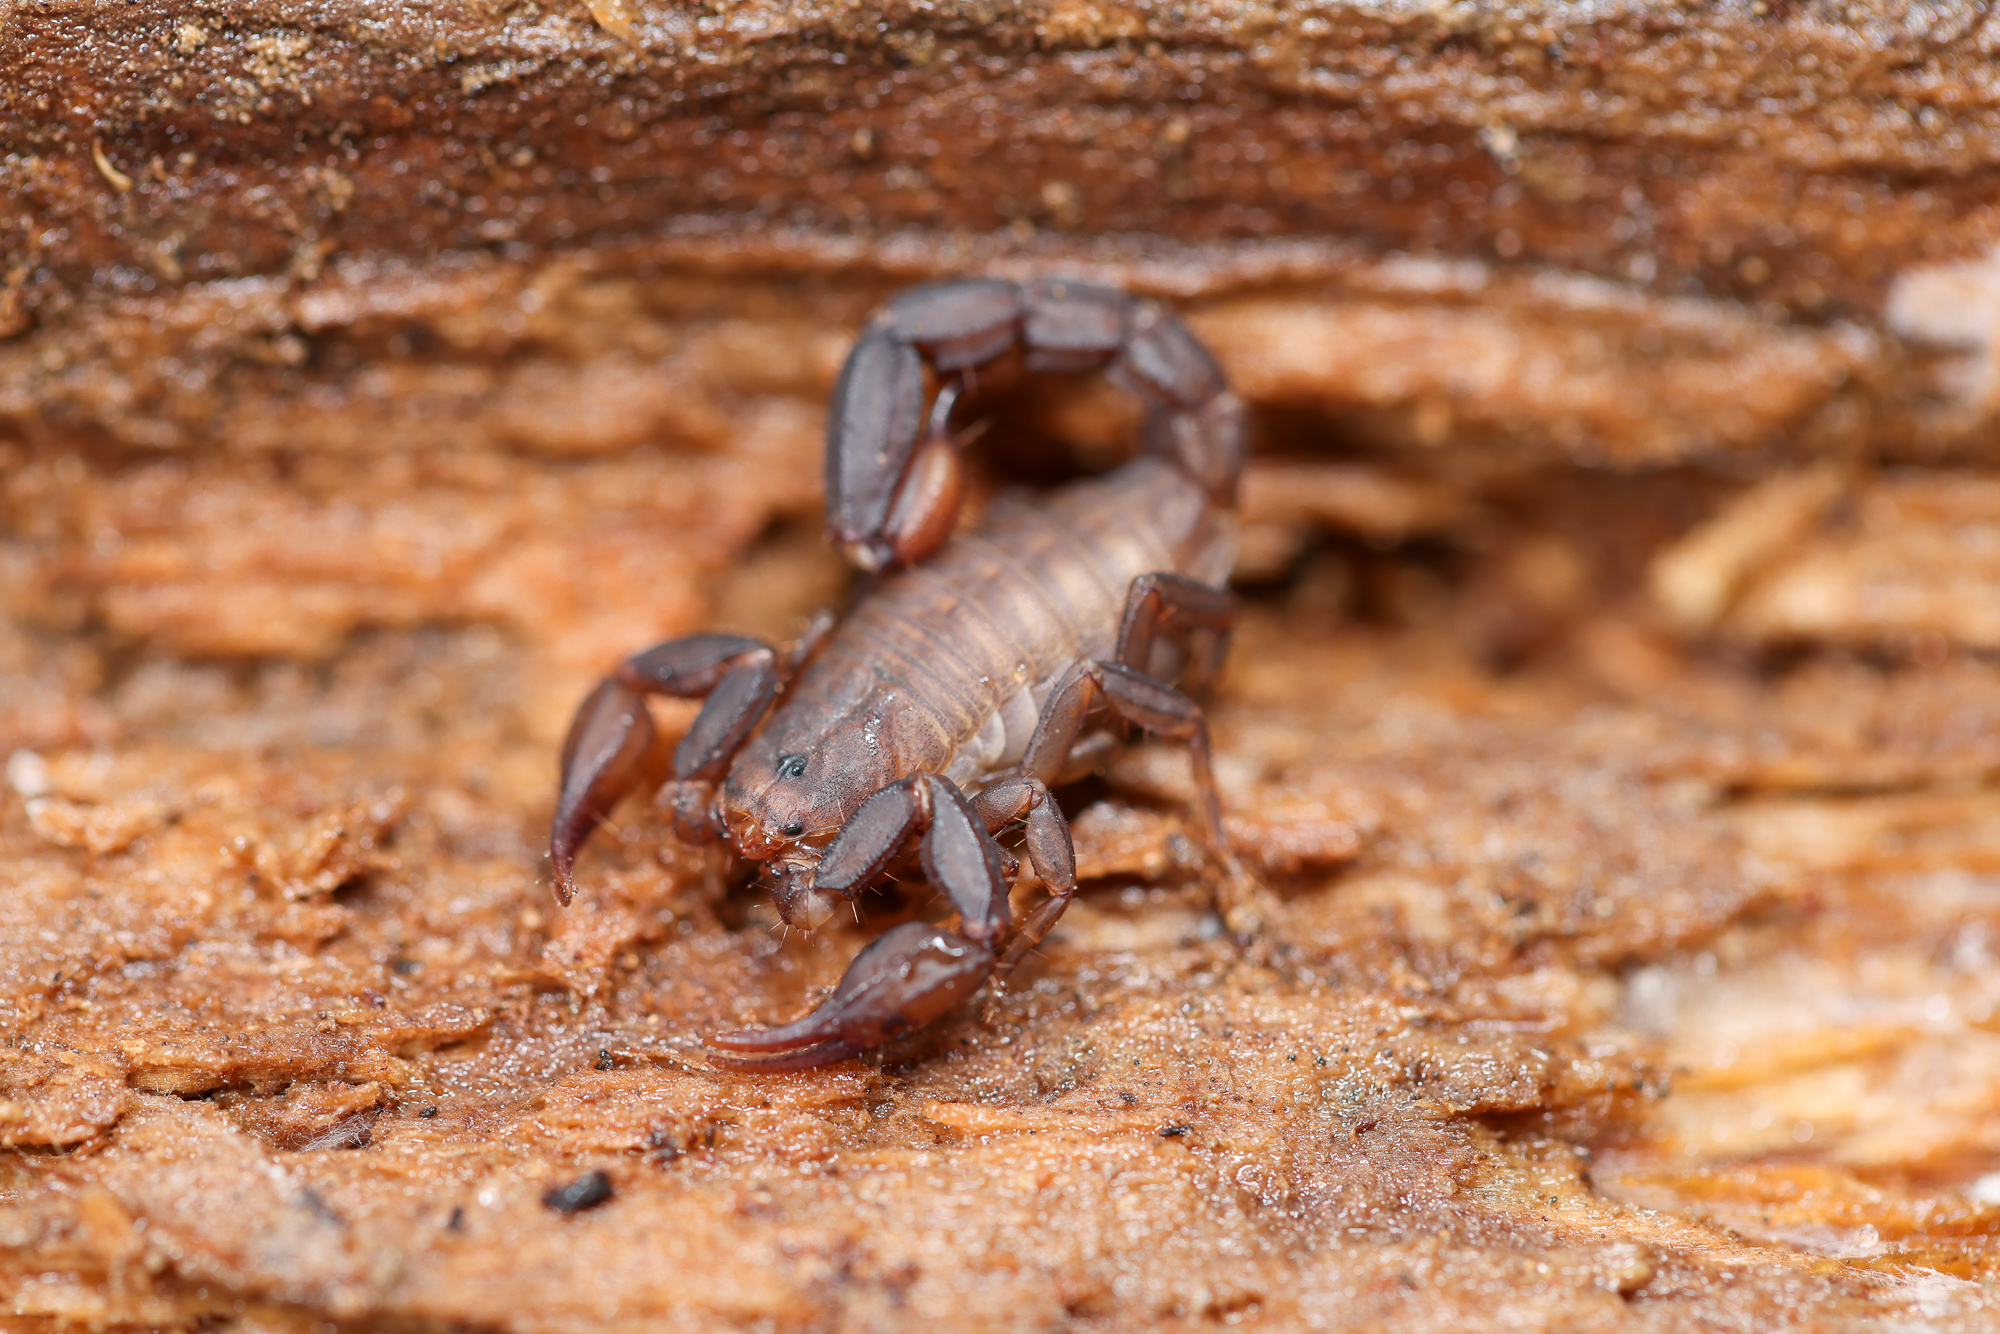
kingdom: Animalia
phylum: Arthropoda
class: Arachnida
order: Scorpiones
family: Vaejovidae
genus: Graemeloweus
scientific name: Graemeloweus iviei
